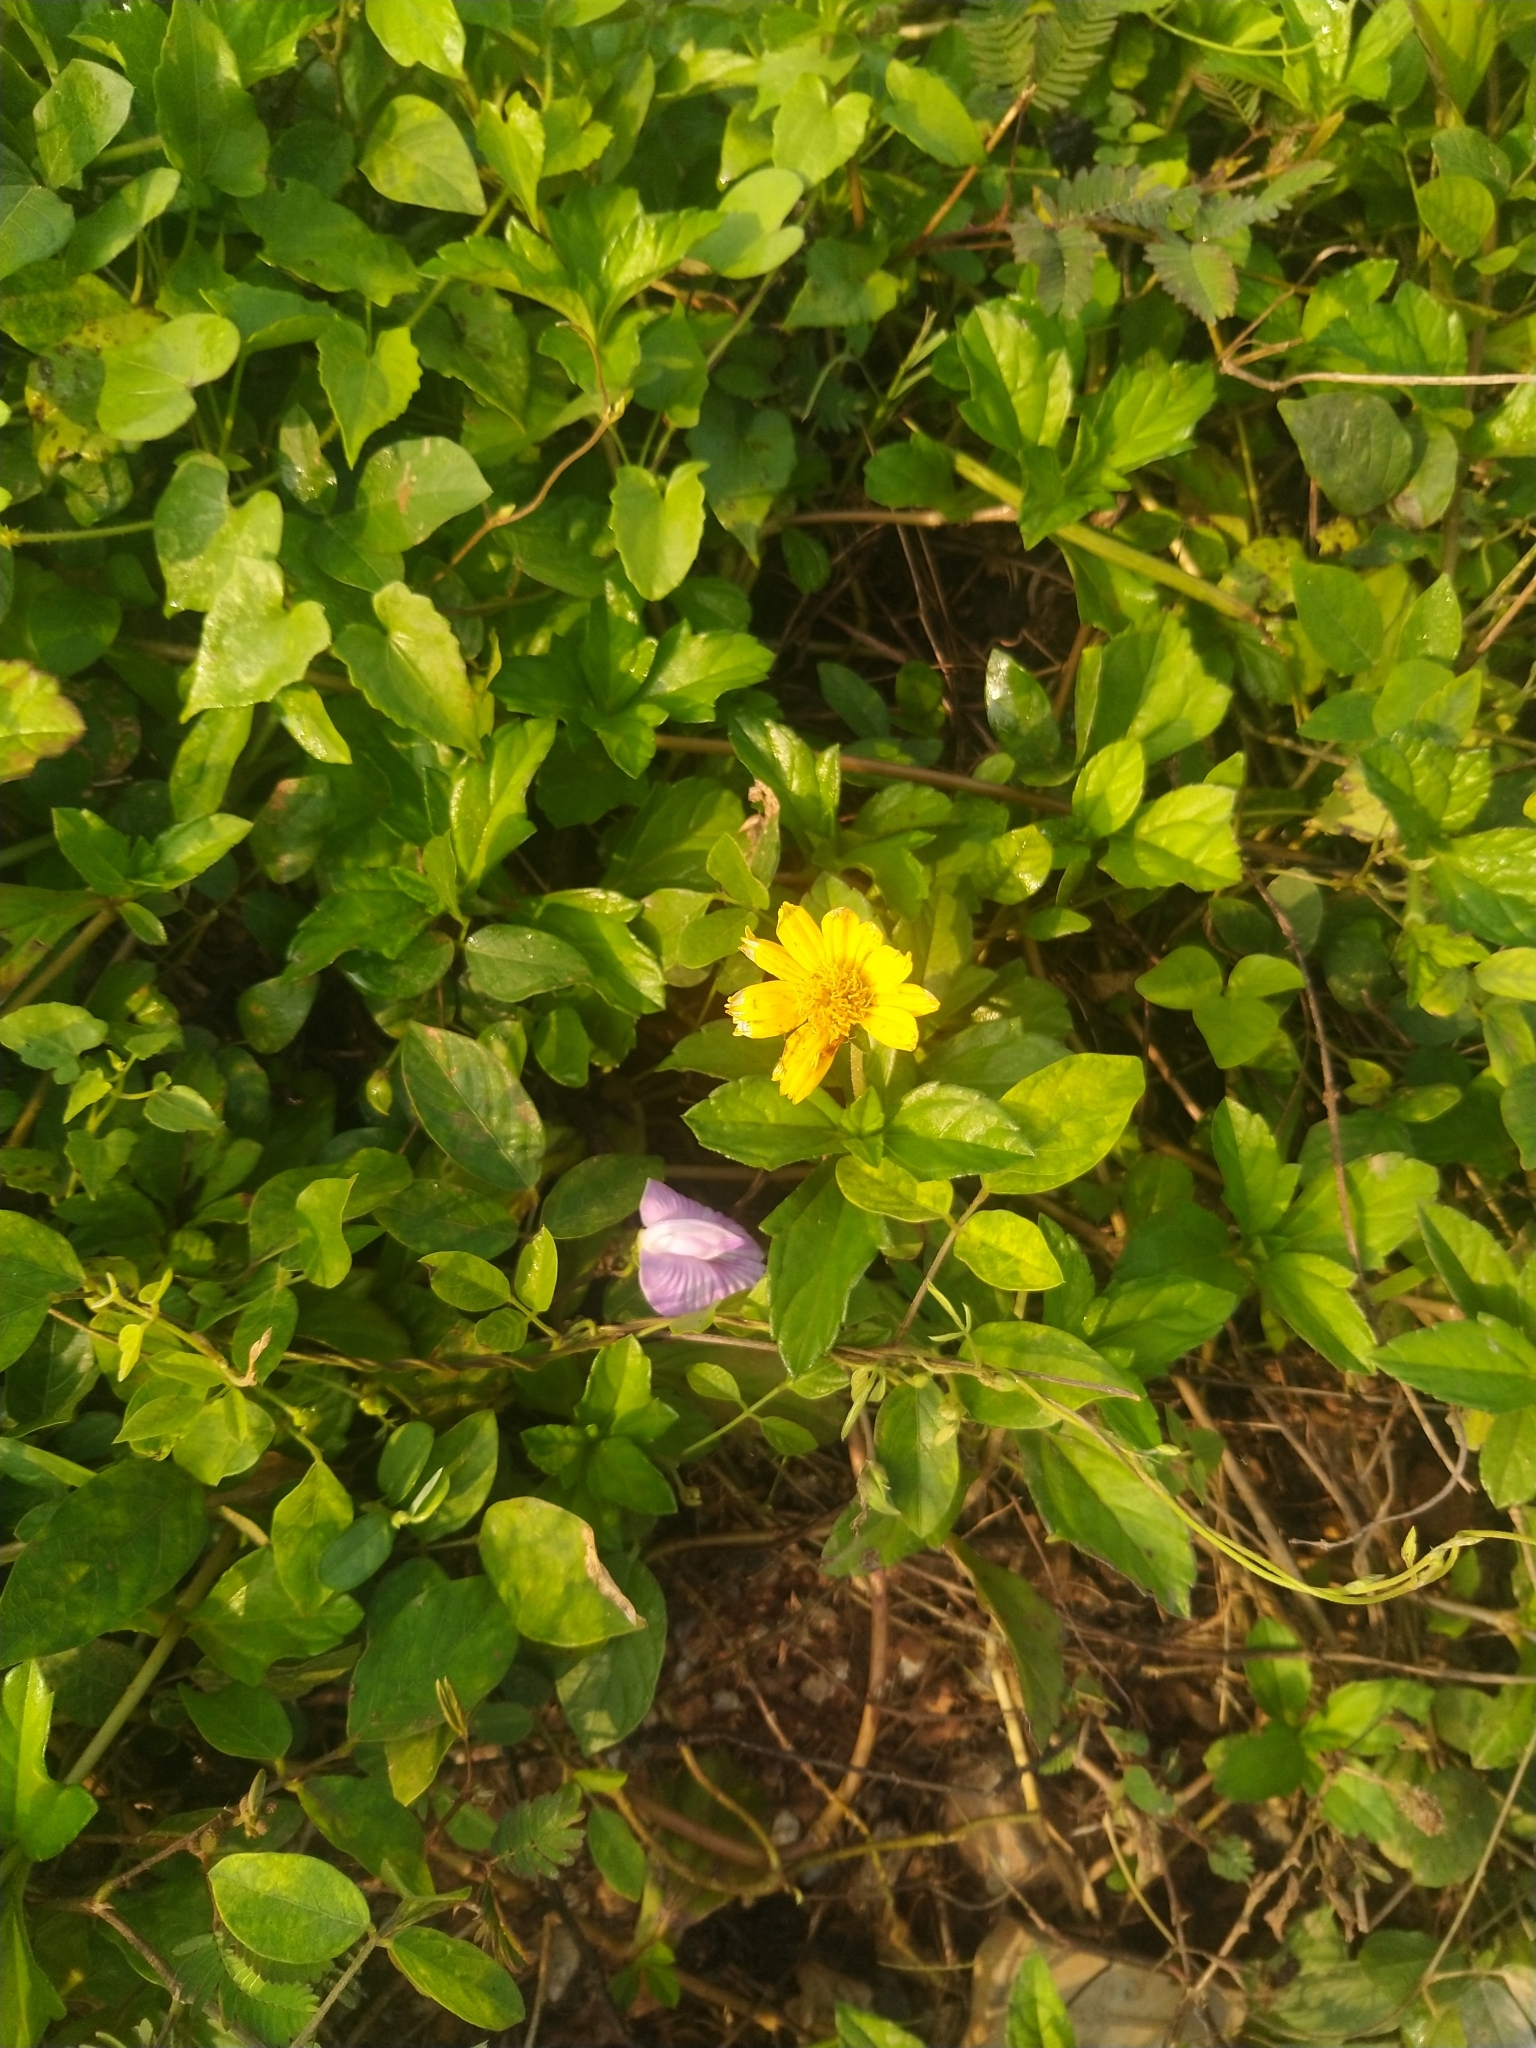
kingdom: Plantae
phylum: Tracheophyta
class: Magnoliopsida
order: Asterales
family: Asteraceae
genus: Sphagneticola
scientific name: Sphagneticola trilobata
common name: Bay biscayne creeping-oxeye
